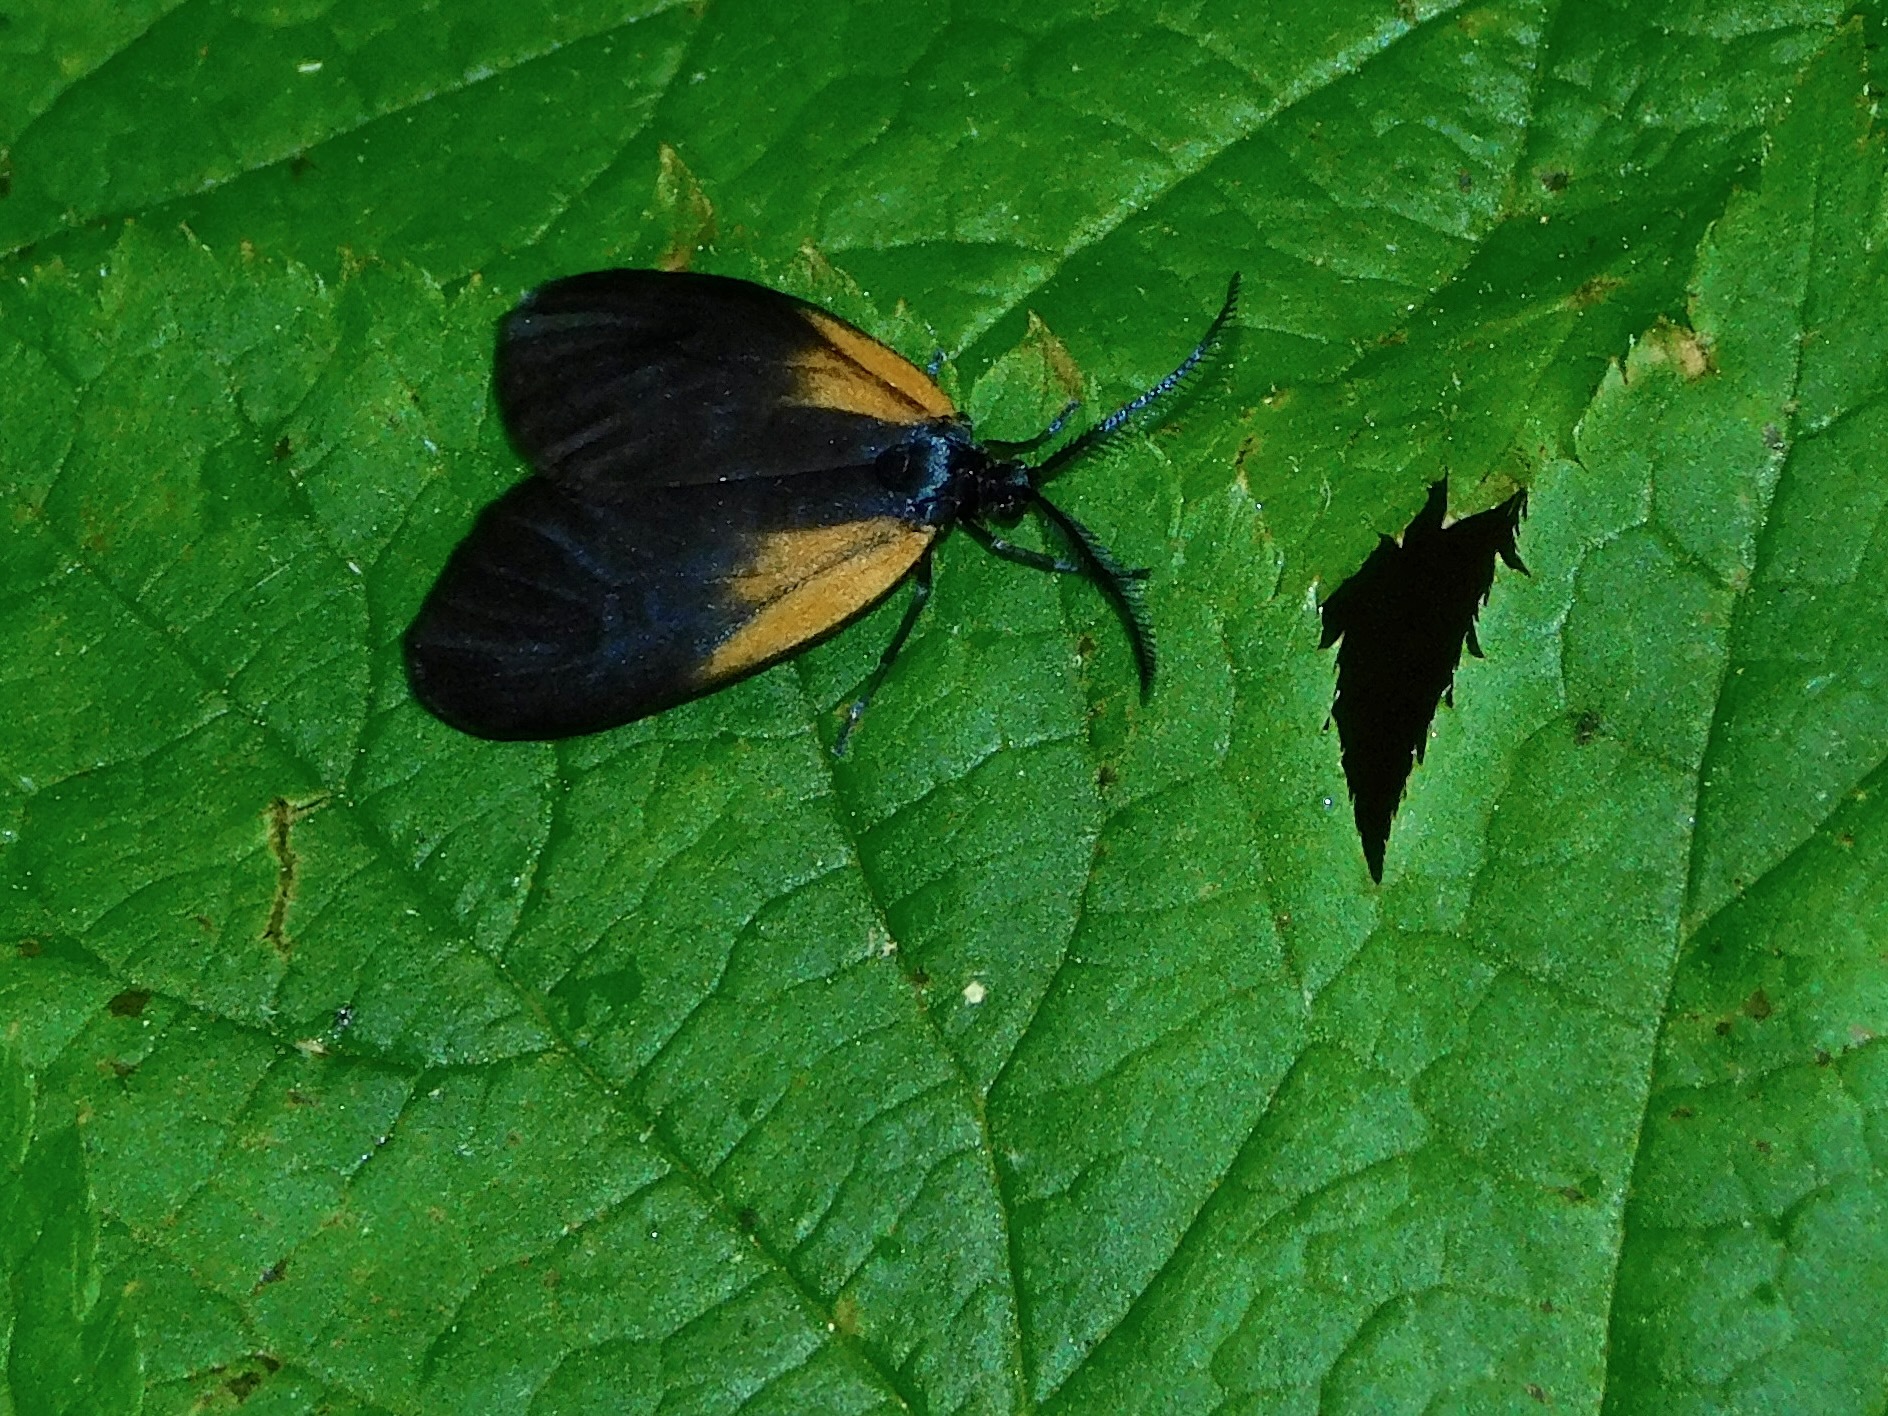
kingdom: Animalia
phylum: Arthropoda
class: Insecta
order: Lepidoptera
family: Zygaenidae
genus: Malthaca
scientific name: Malthaca dimidiata
